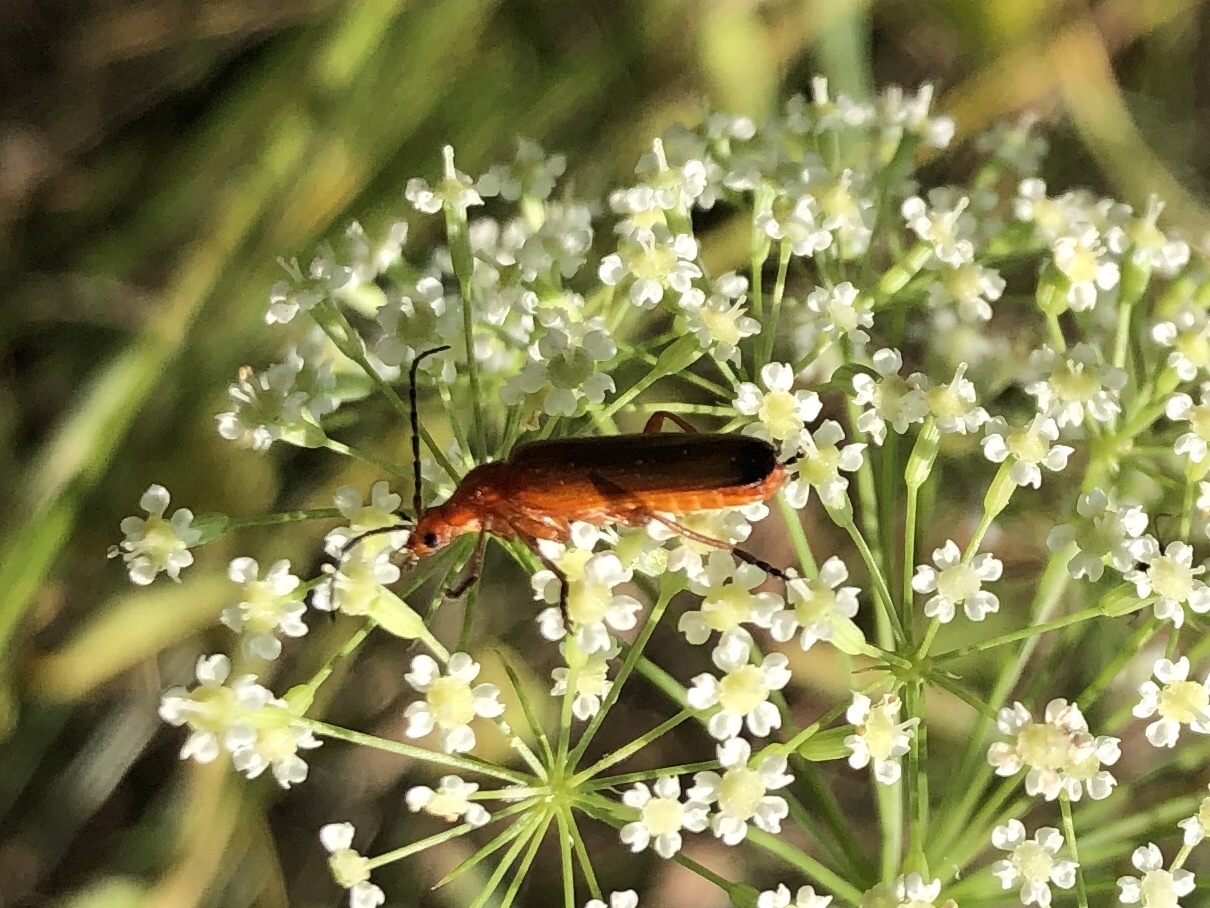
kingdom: Animalia
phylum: Arthropoda
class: Insecta
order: Coleoptera
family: Cantharidae
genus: Rhagonycha
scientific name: Rhagonycha fulva
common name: Common red soldier beetle
